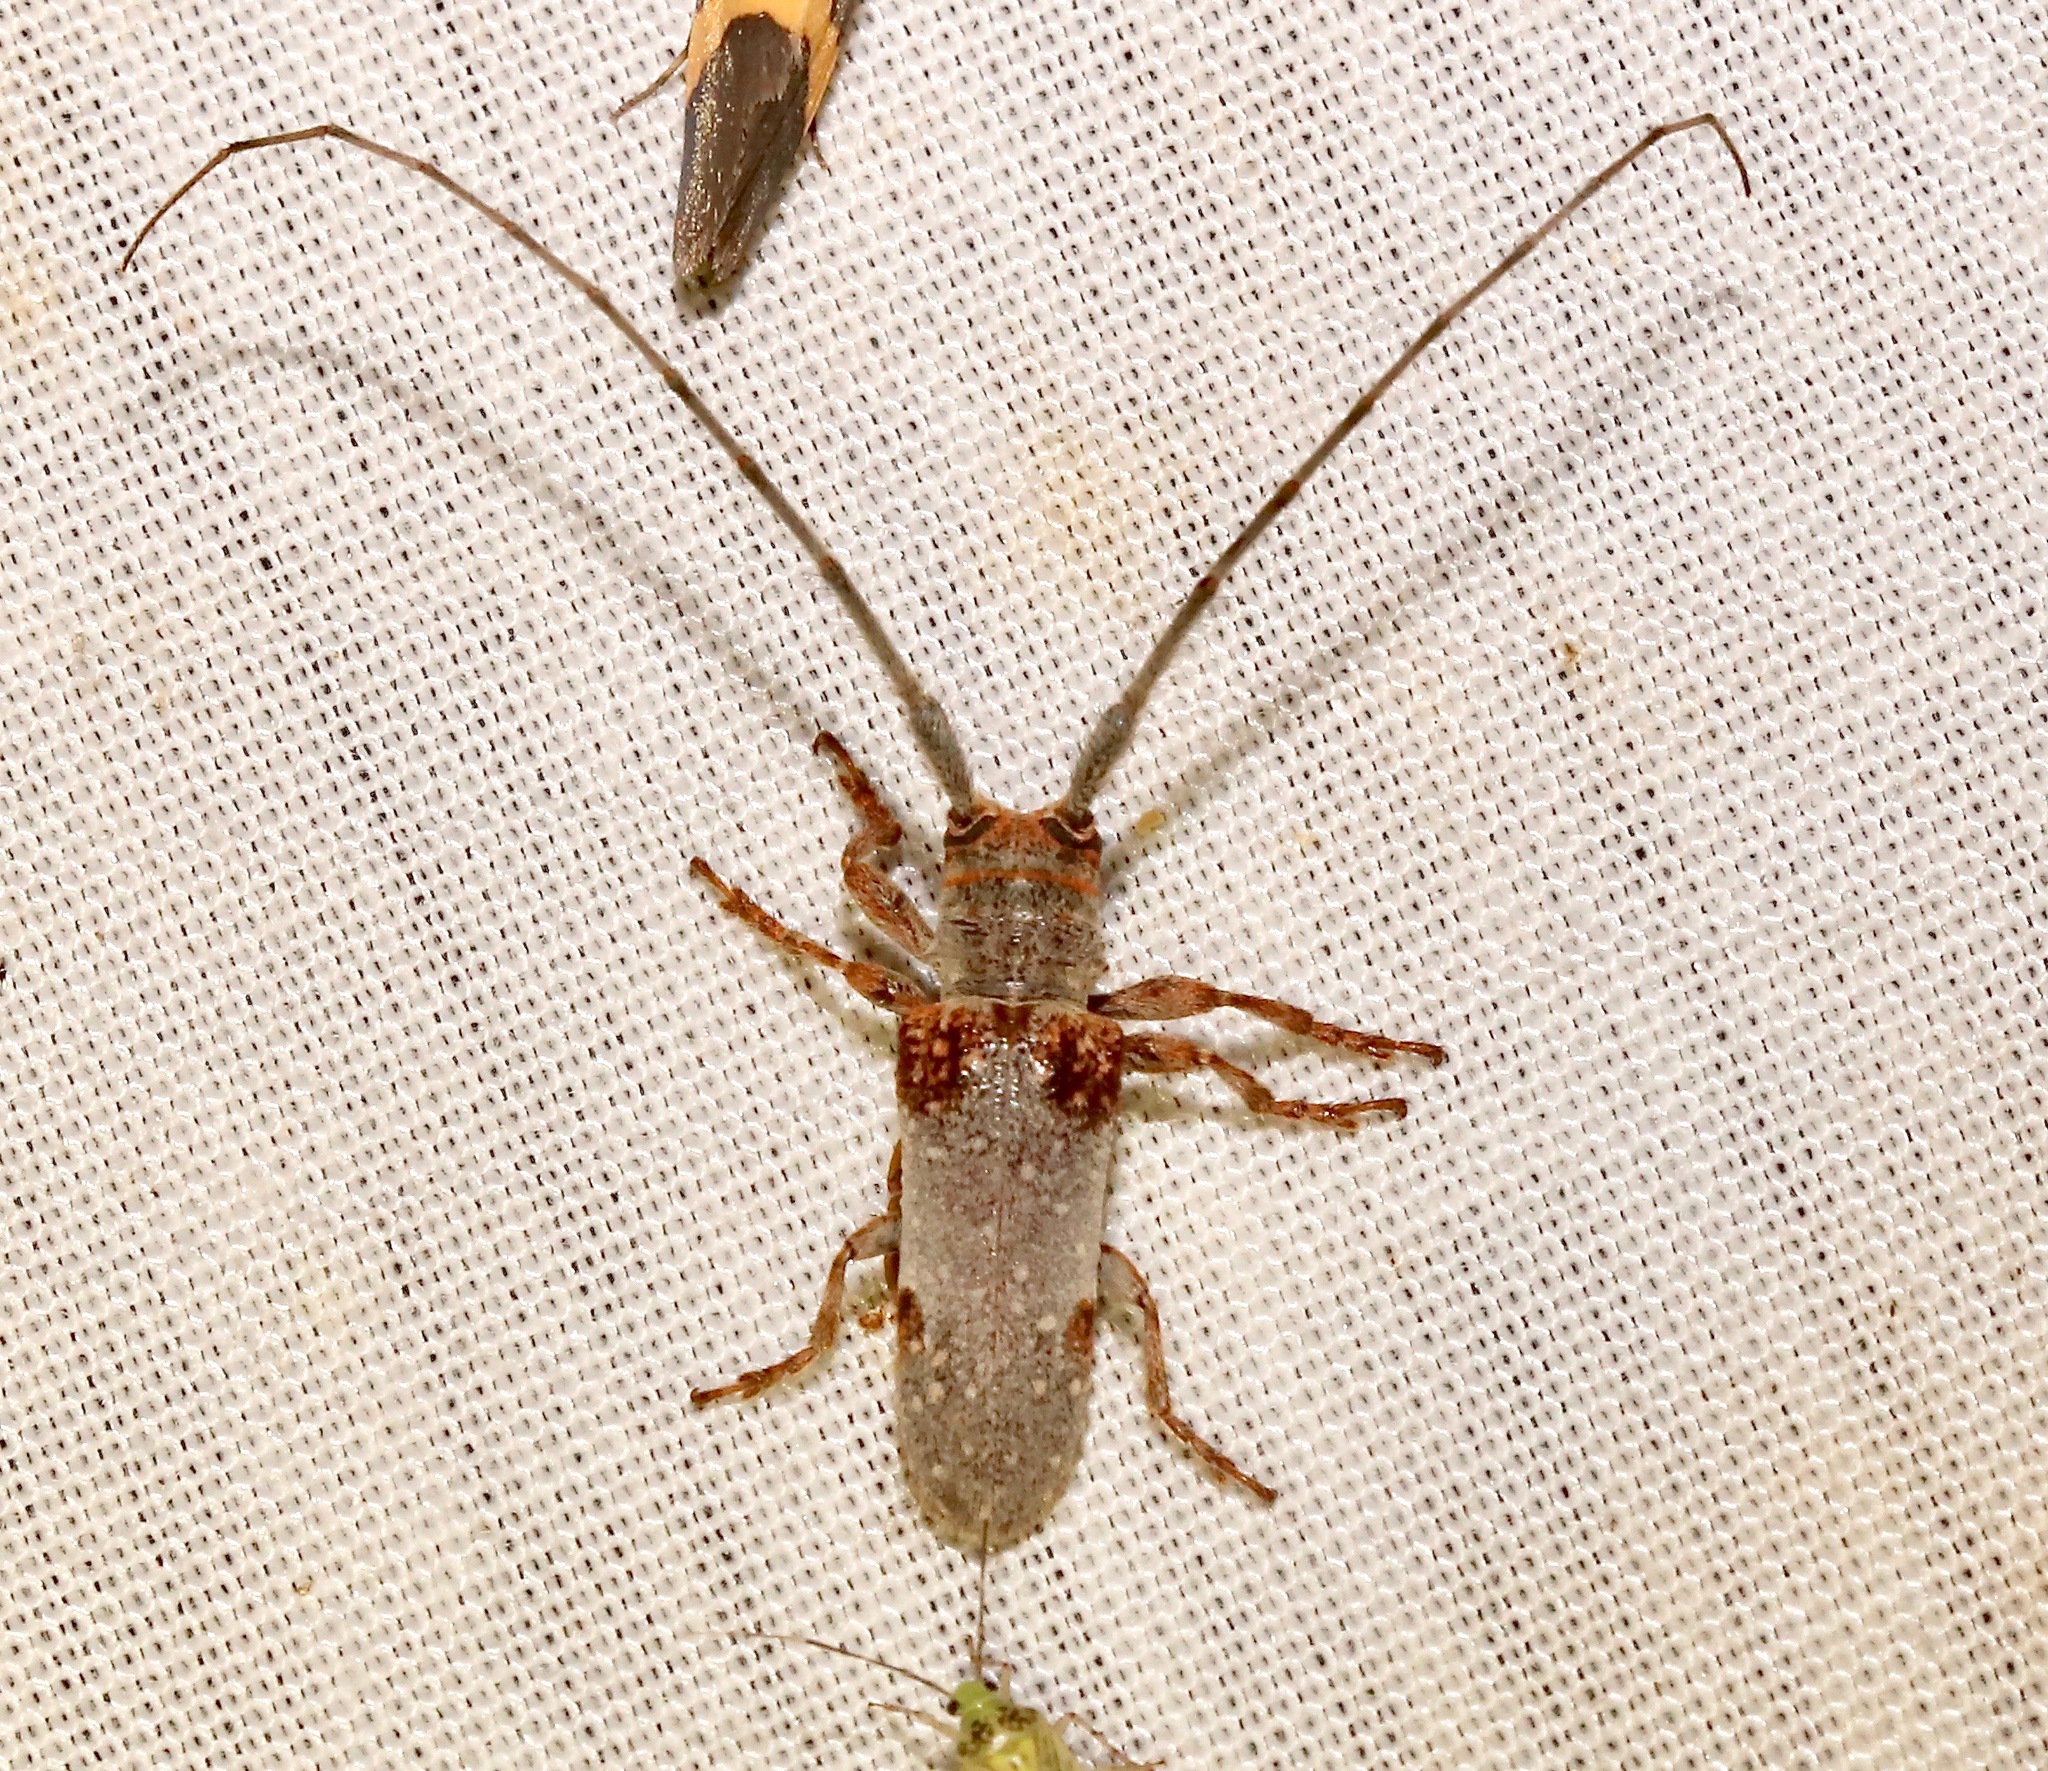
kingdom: Animalia
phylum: Arthropoda
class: Insecta
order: Coleoptera
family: Cerambycidae
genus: Oncideres
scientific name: Oncideres quercus
